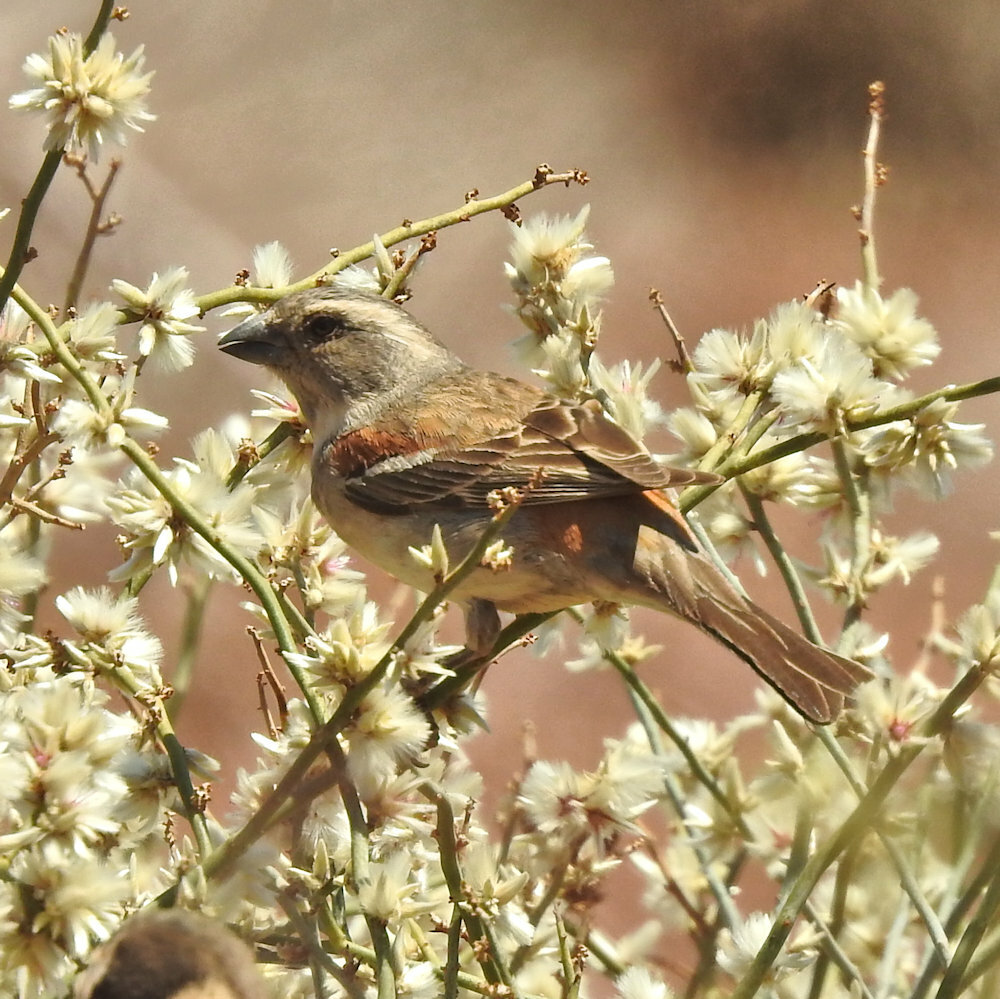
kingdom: Animalia
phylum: Chordata
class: Aves
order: Passeriformes
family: Passeridae
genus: Passer
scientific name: Passer melanurus
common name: Cape sparrow
